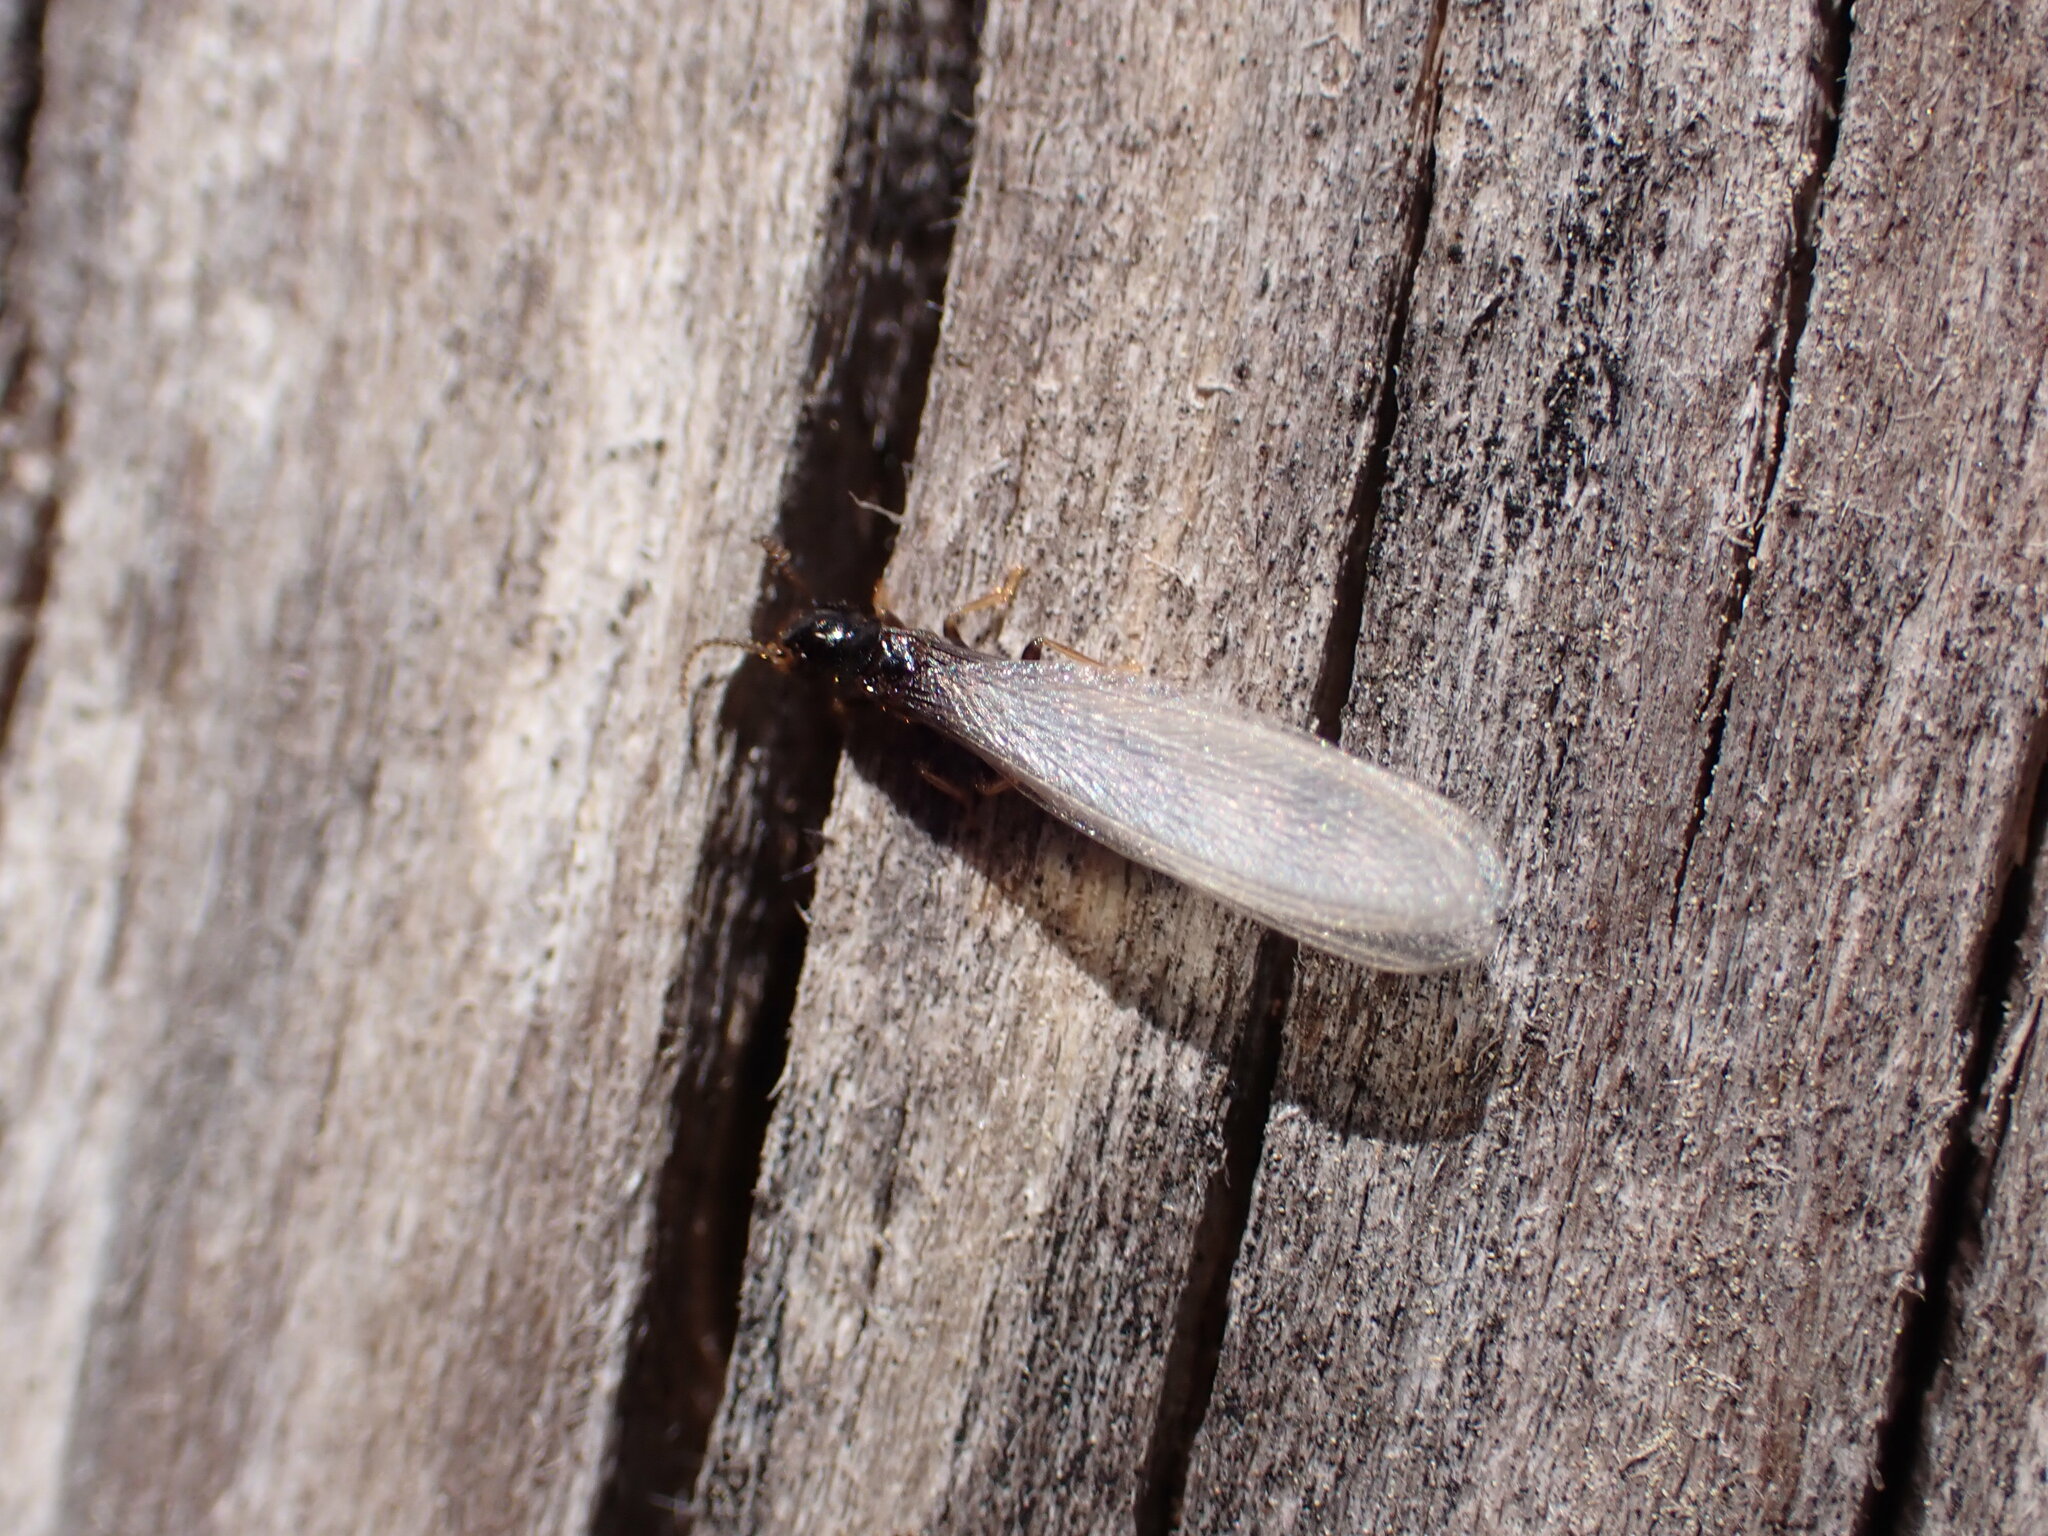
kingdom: Animalia
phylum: Arthropoda
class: Insecta
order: Blattodea
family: Rhinotermitidae
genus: Reticulitermes
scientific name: Reticulitermes flavipes
